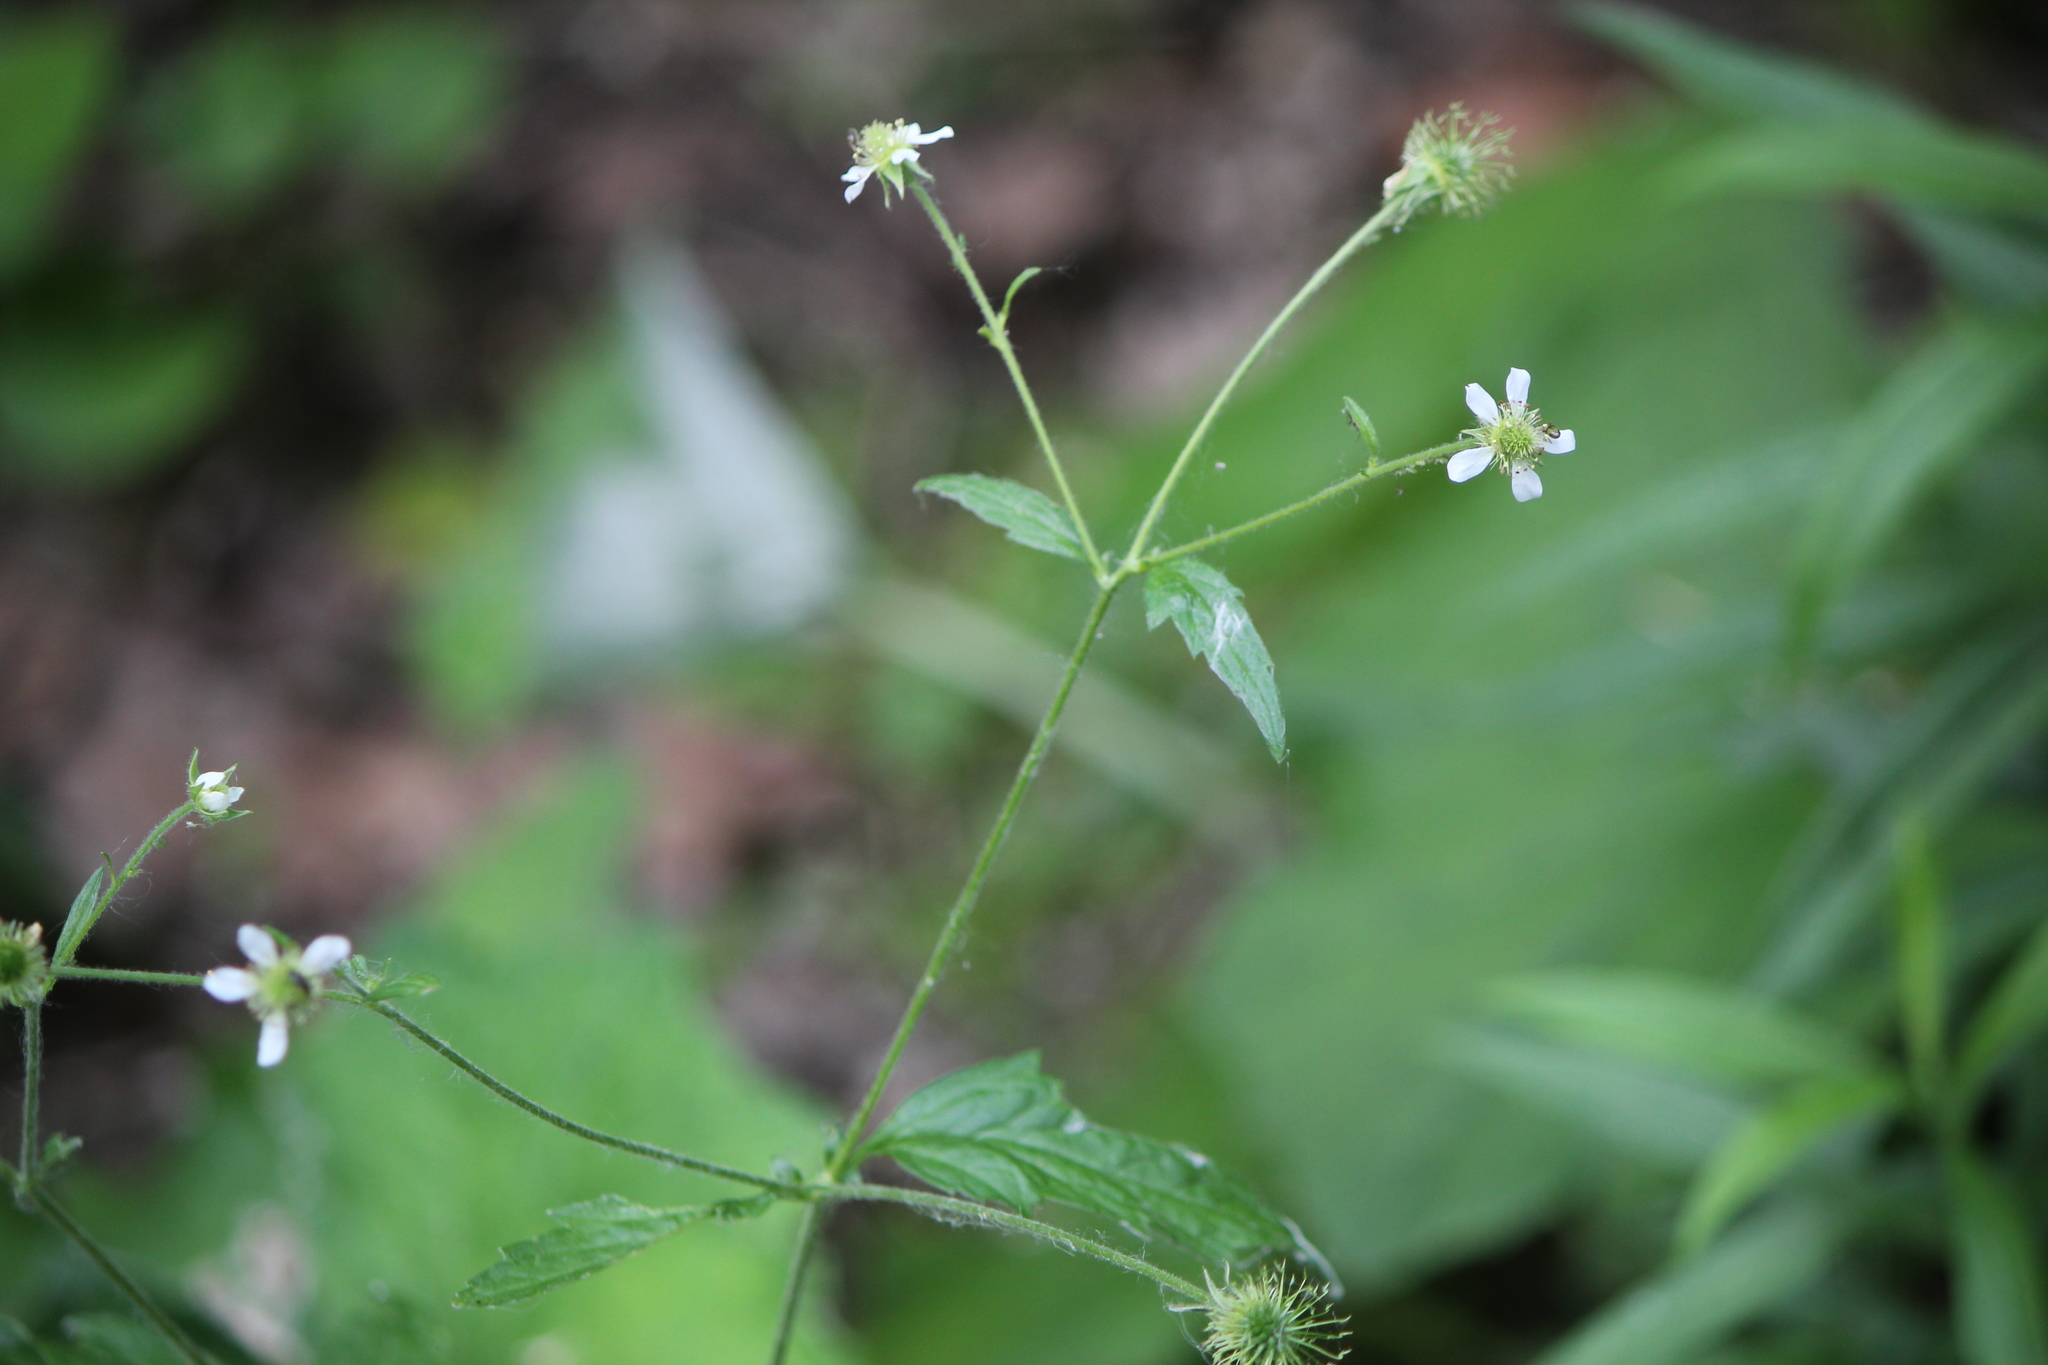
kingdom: Plantae
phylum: Tracheophyta
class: Magnoliopsida
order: Rosales
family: Rosaceae
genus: Geum
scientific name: Geum canadense
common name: White avens
